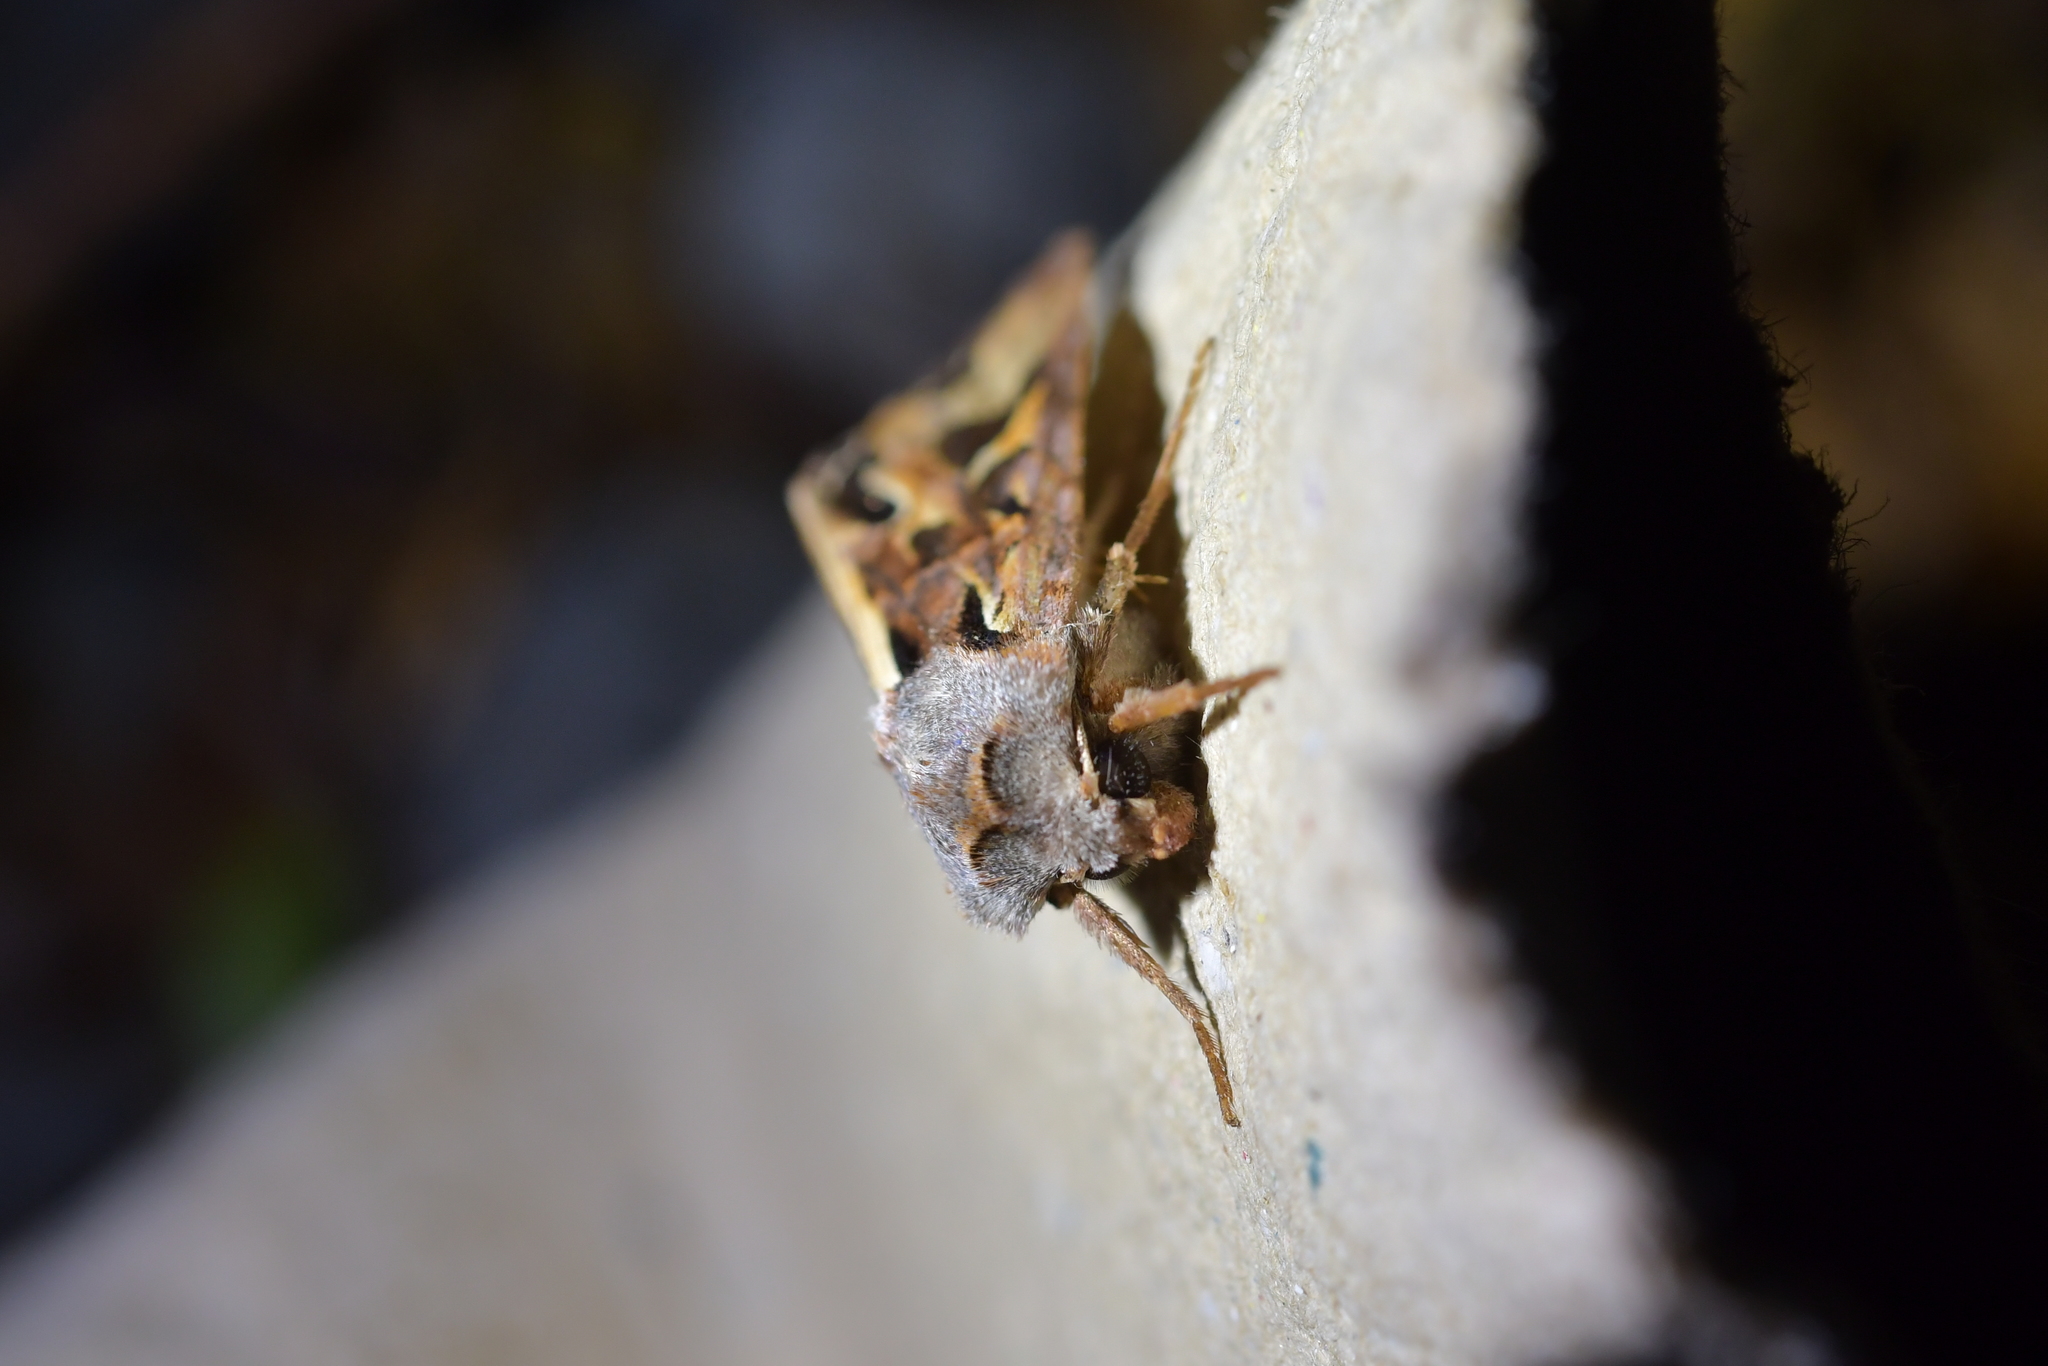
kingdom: Animalia
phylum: Arthropoda
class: Insecta
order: Lepidoptera
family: Noctuidae
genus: Ichneutica
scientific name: Ichneutica
